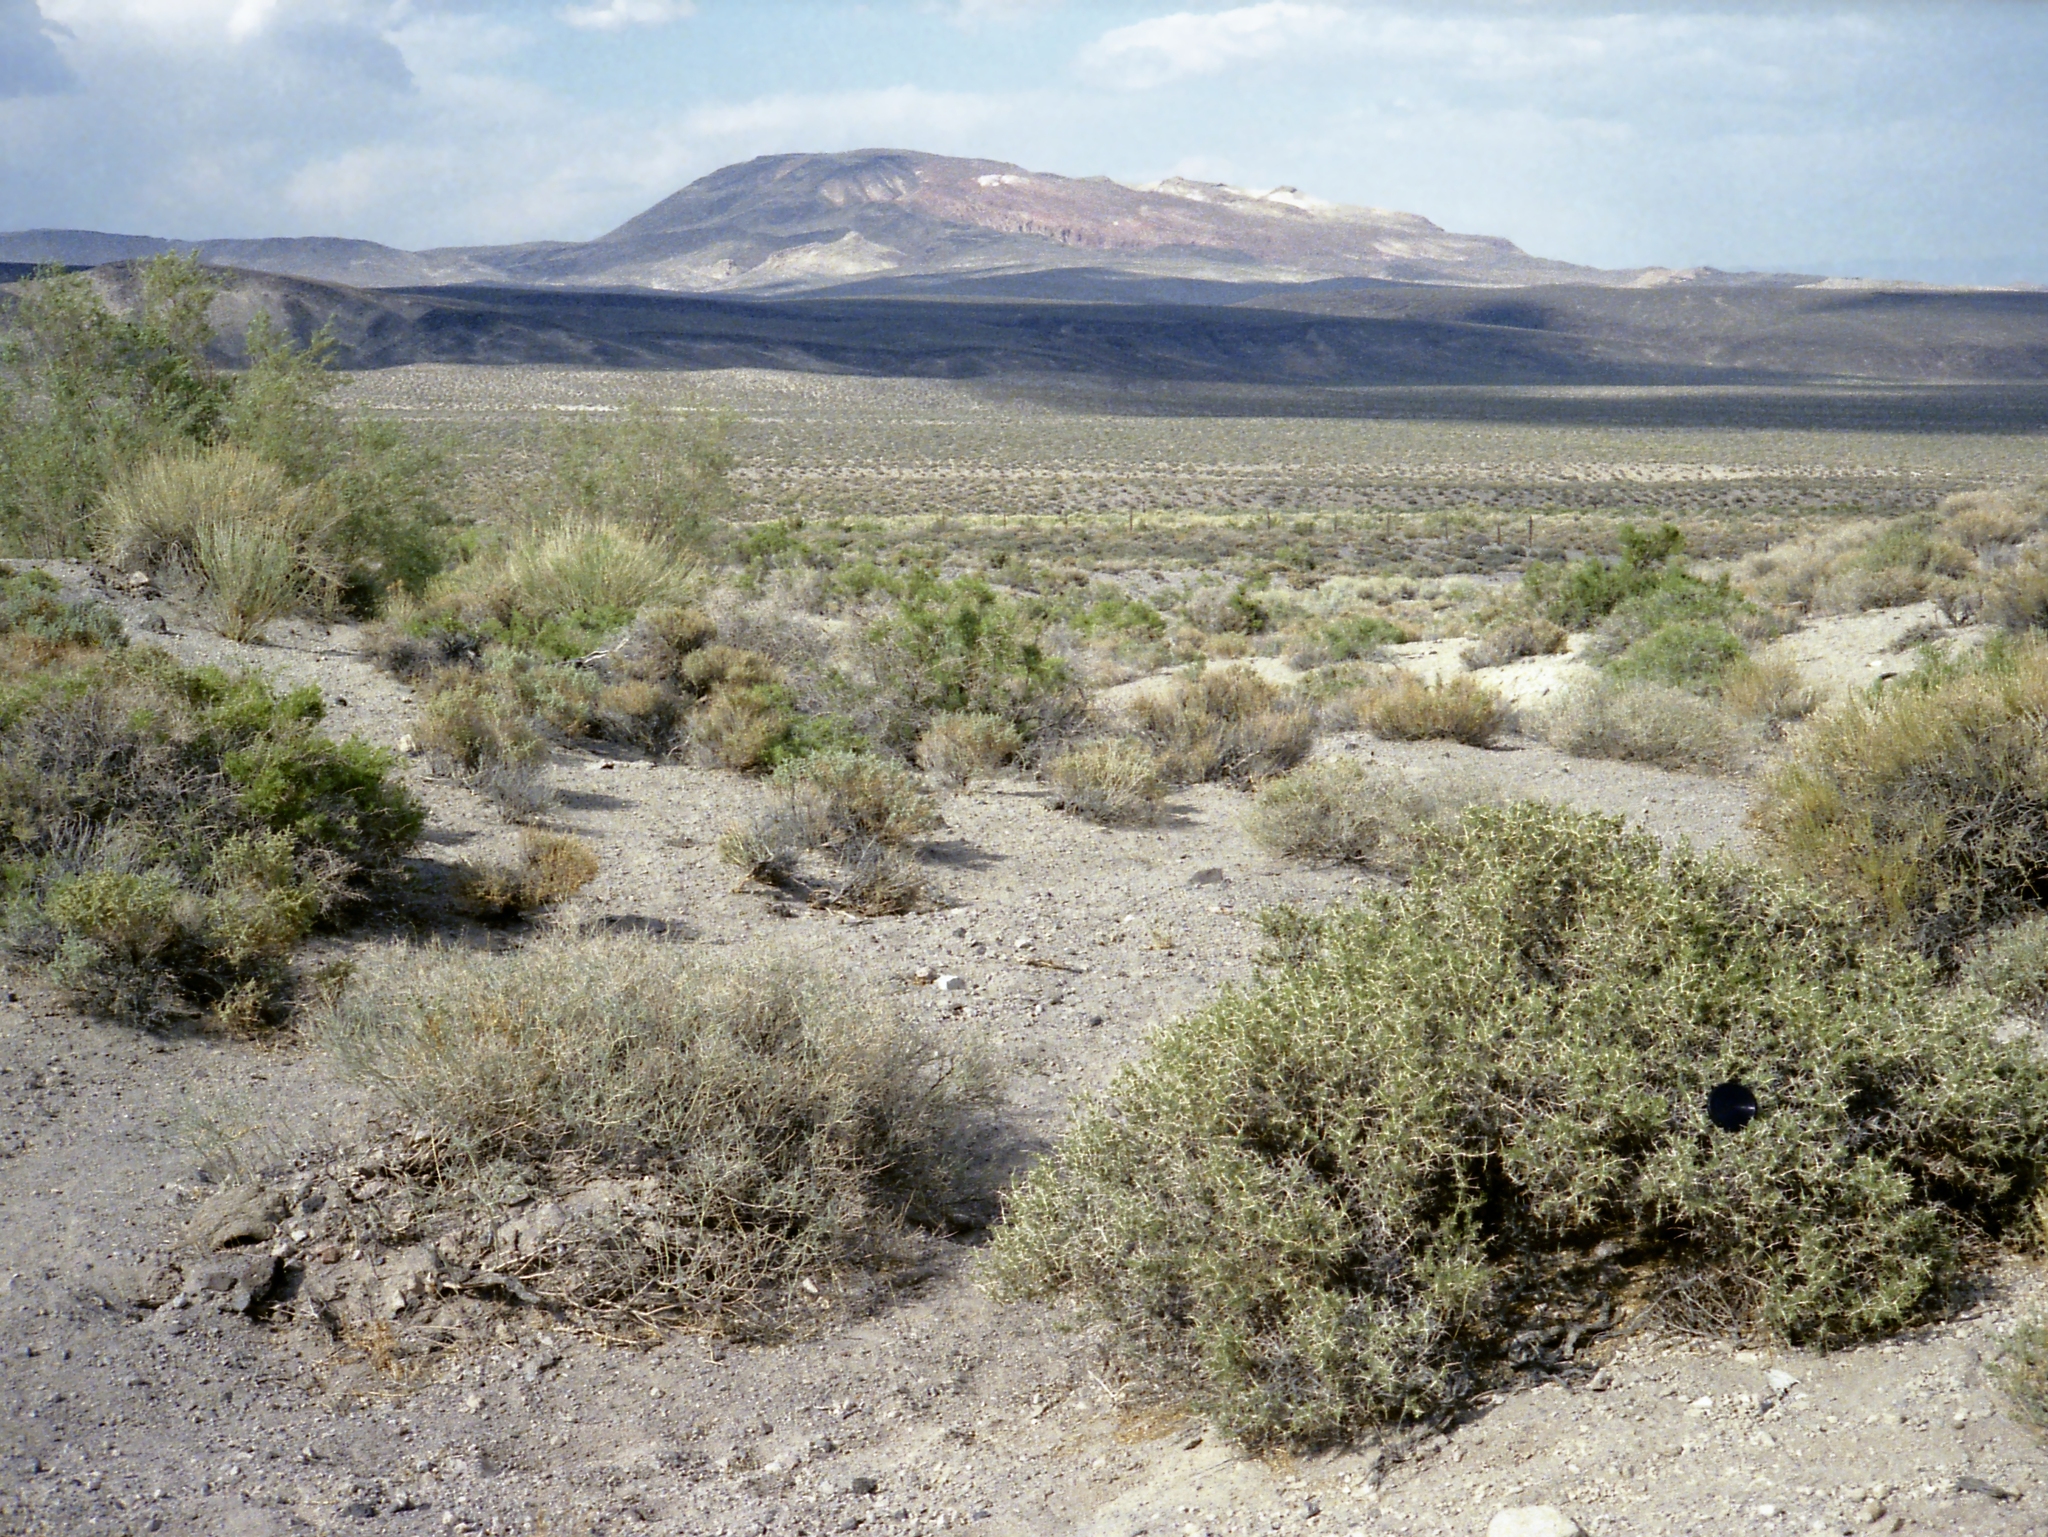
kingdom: Plantae
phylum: Tracheophyta
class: Magnoliopsida
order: Caryophyllales
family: Sarcobataceae
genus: Sarcobatus
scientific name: Sarcobatus baileyi
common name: Bailey greasewood
